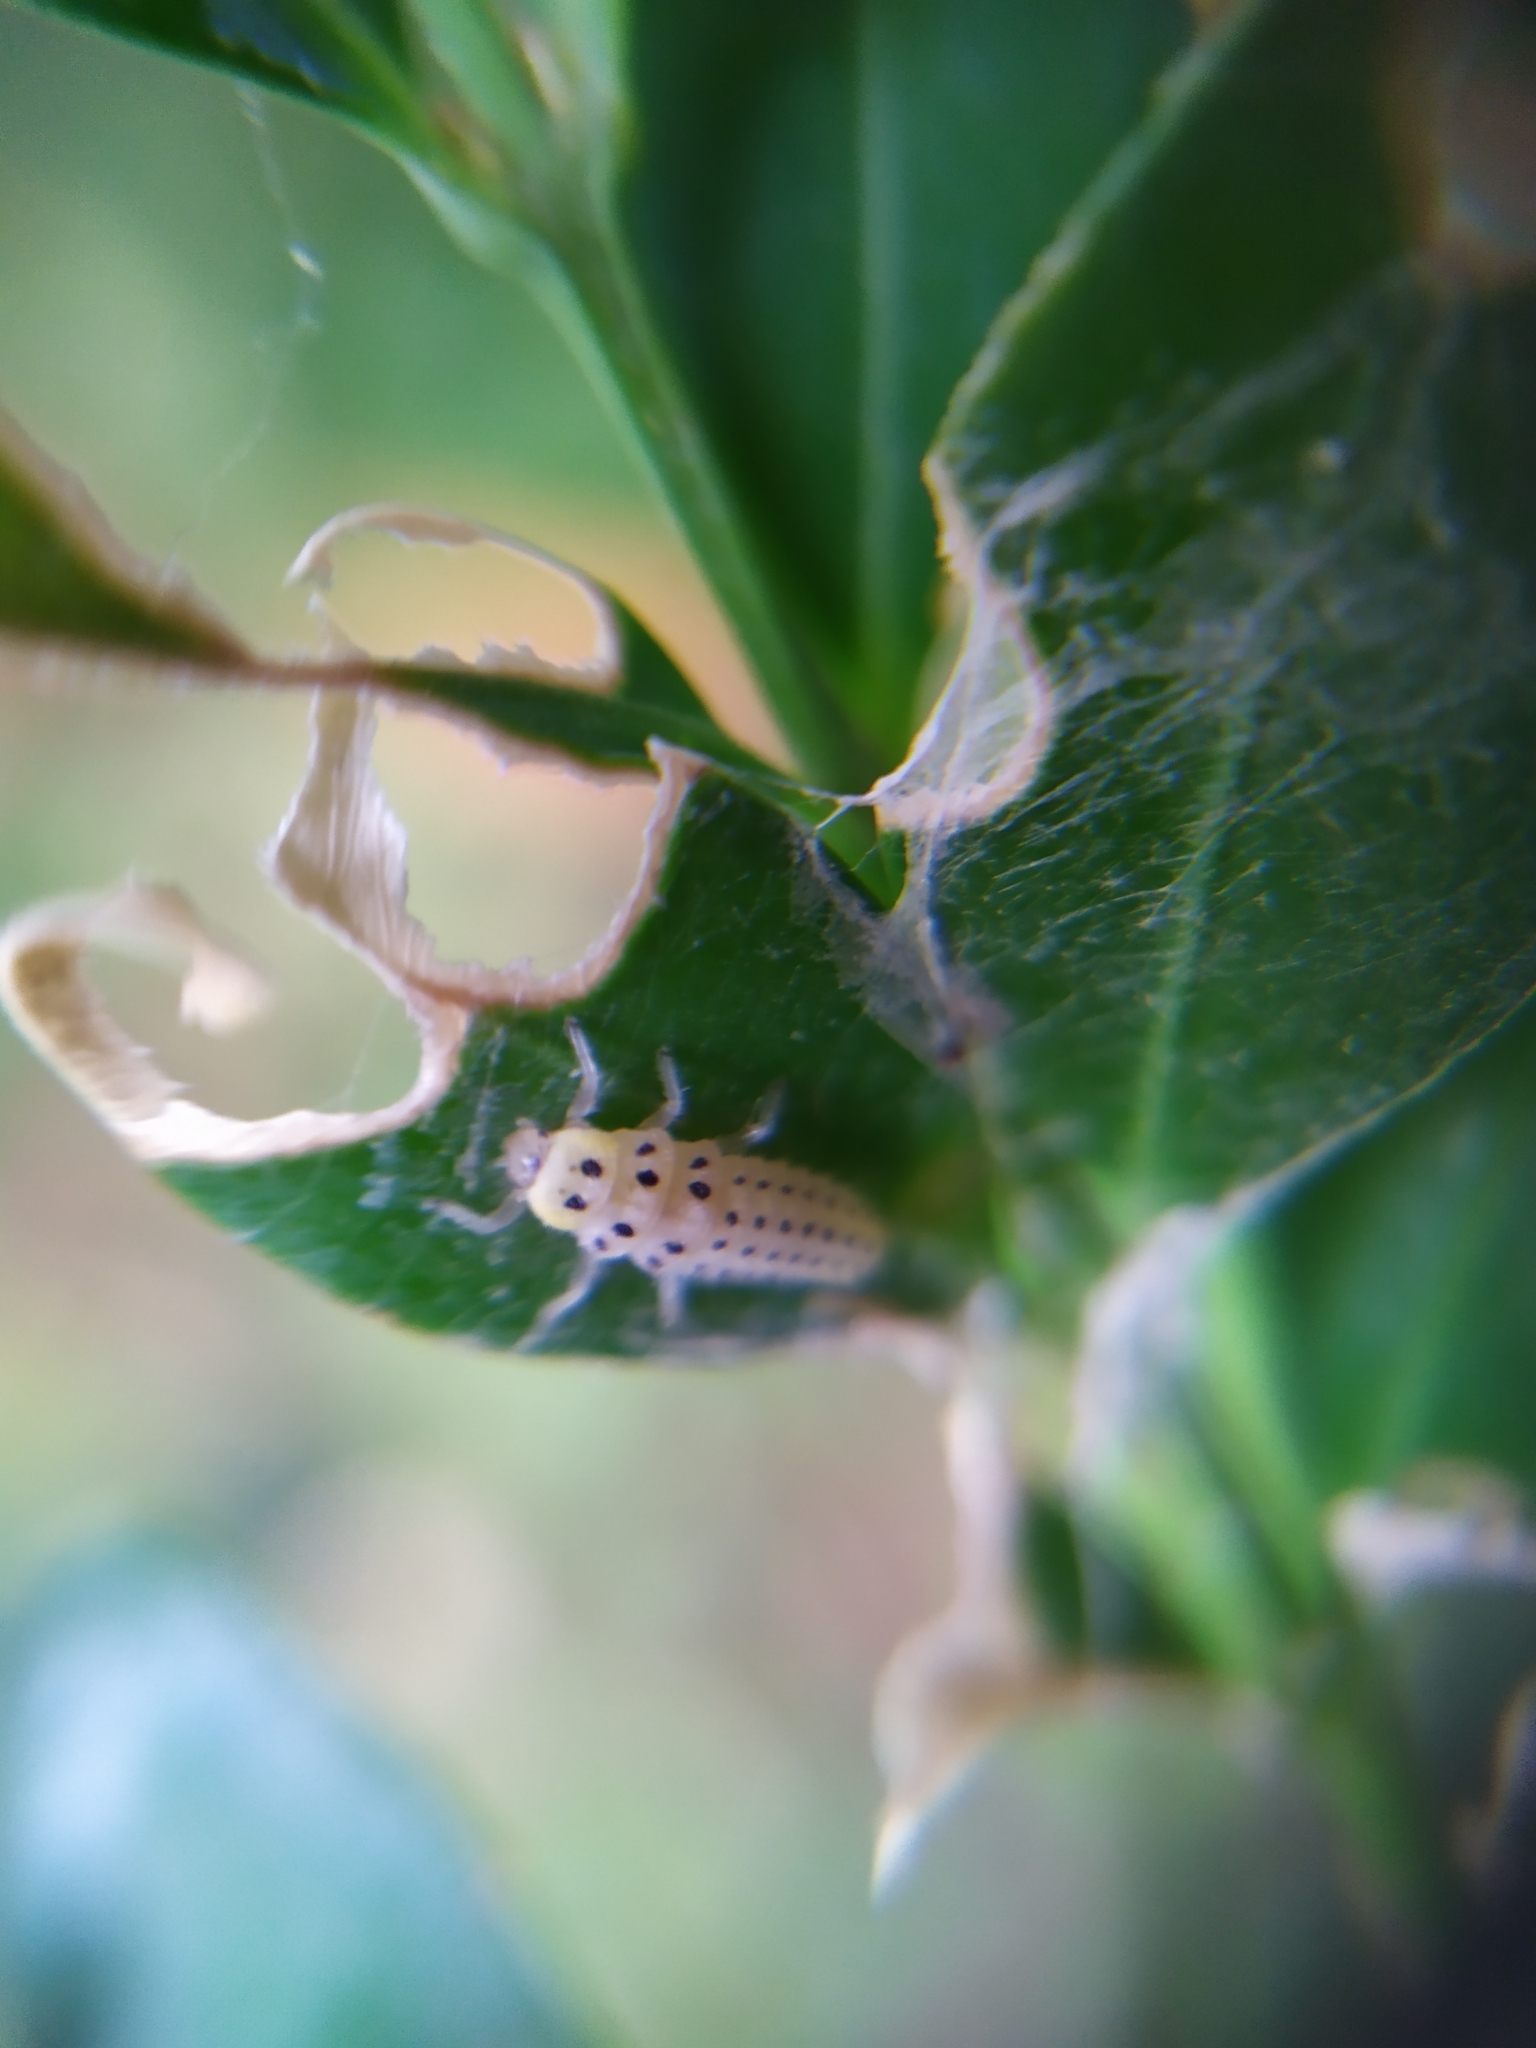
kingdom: Animalia
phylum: Arthropoda
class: Insecta
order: Coleoptera
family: Coccinellidae
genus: Vibidia
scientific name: Vibidia duodecimguttata
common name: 12-spot ladybird
